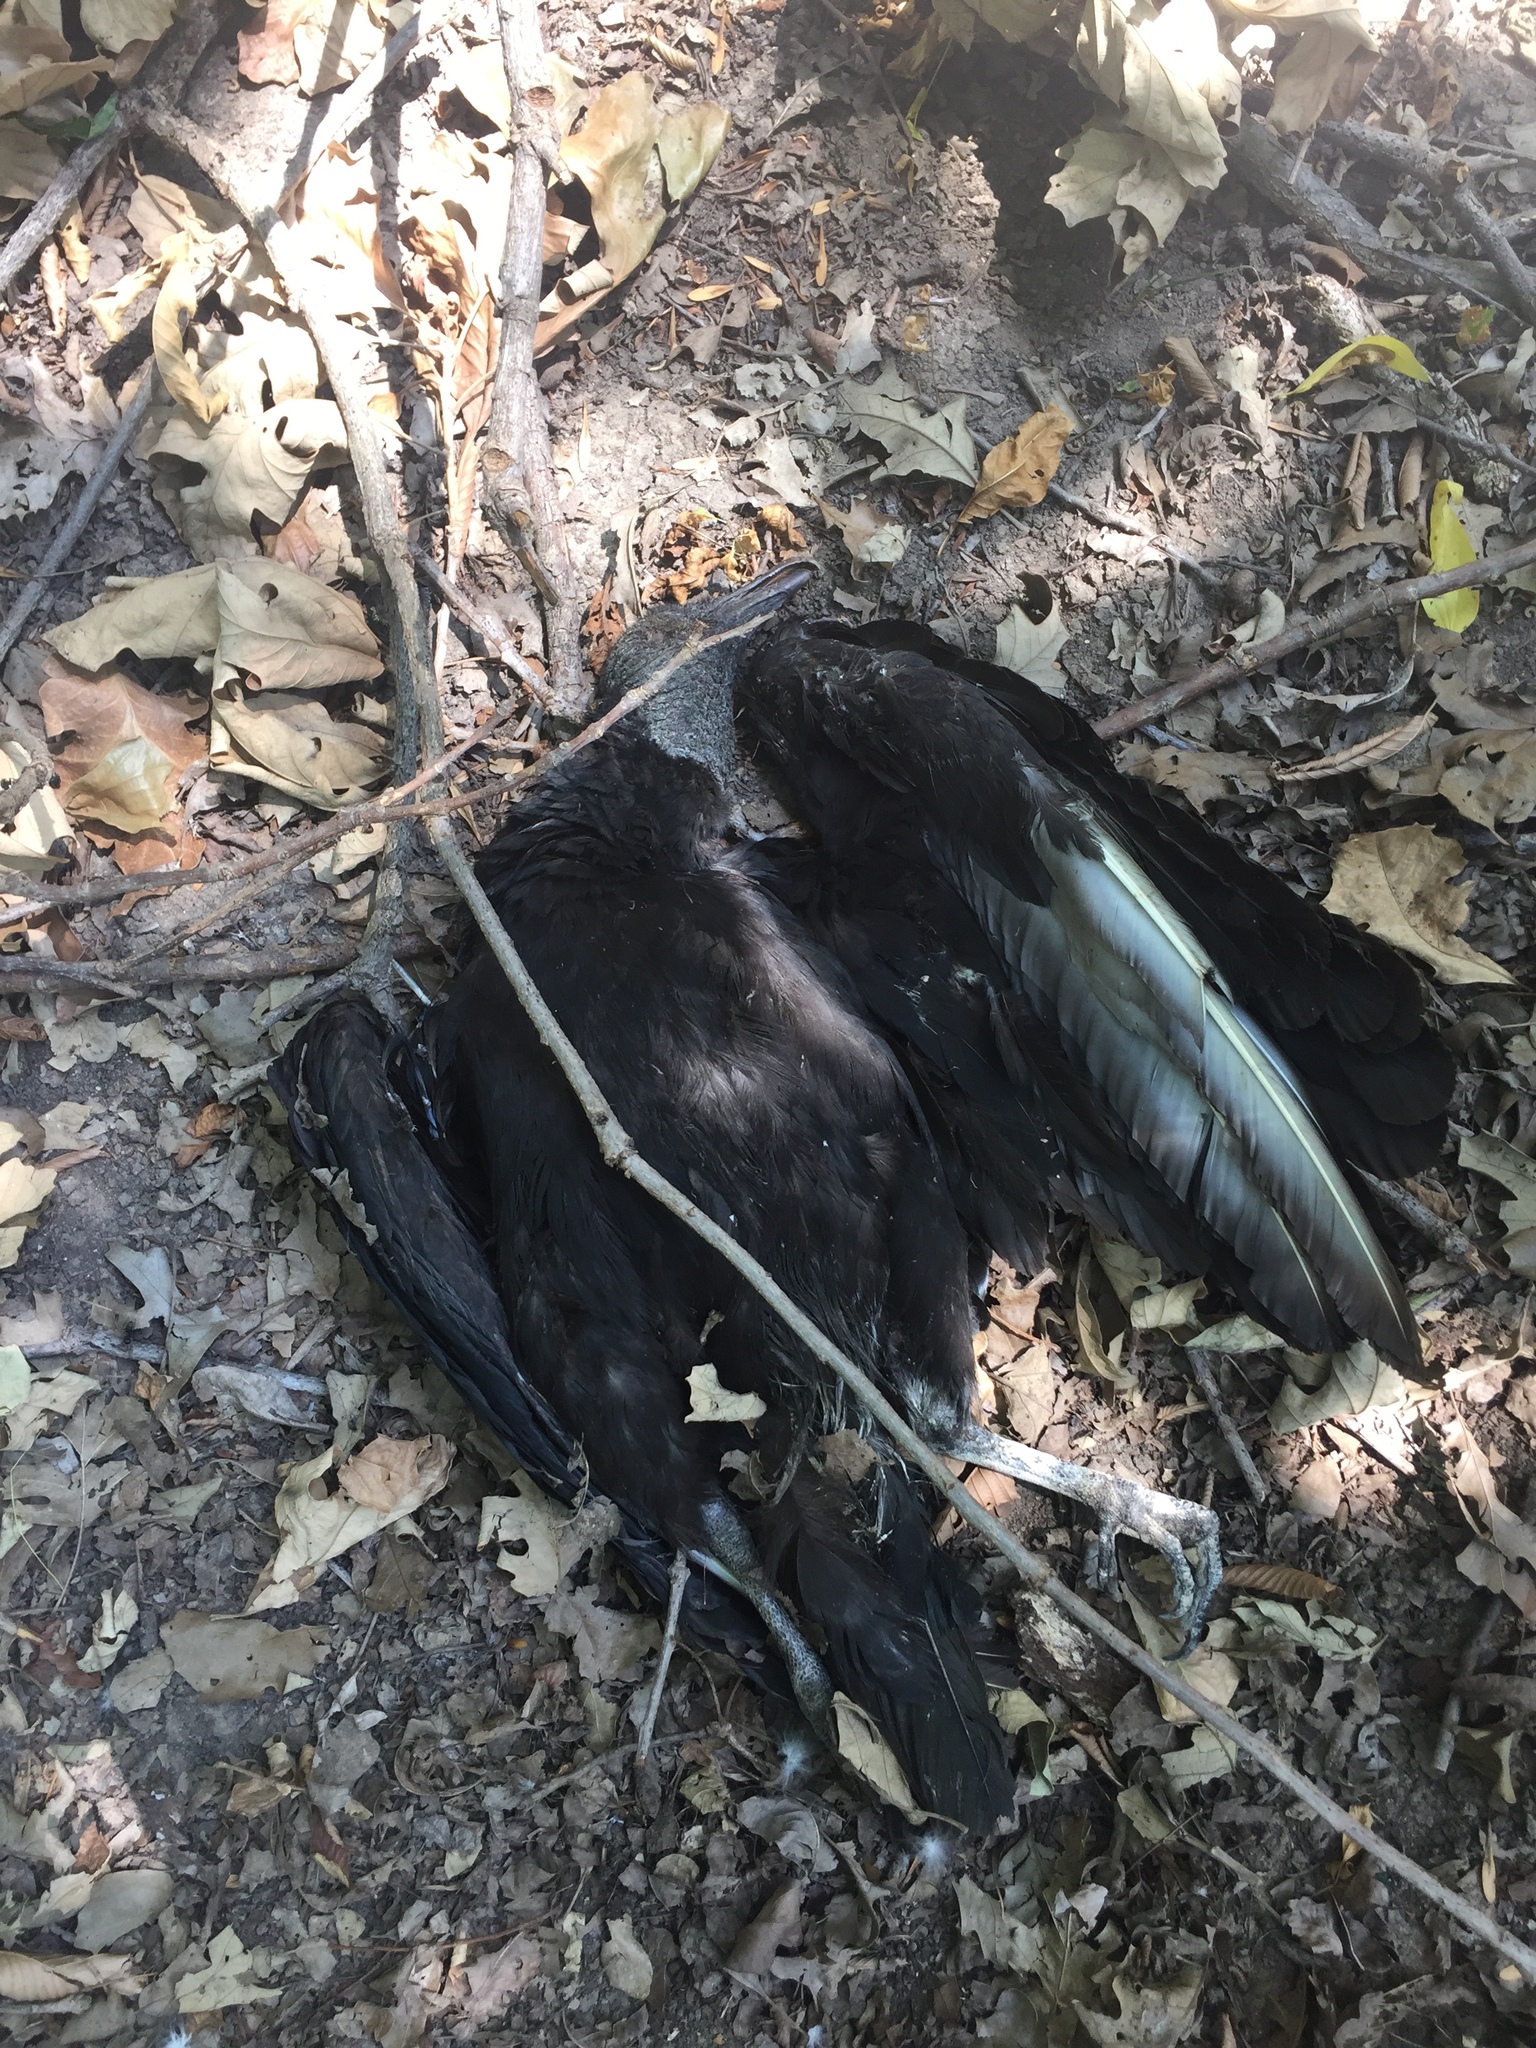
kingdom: Animalia
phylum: Chordata
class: Aves
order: Accipitriformes
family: Cathartidae
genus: Coragyps
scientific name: Coragyps atratus
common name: Black vulture
